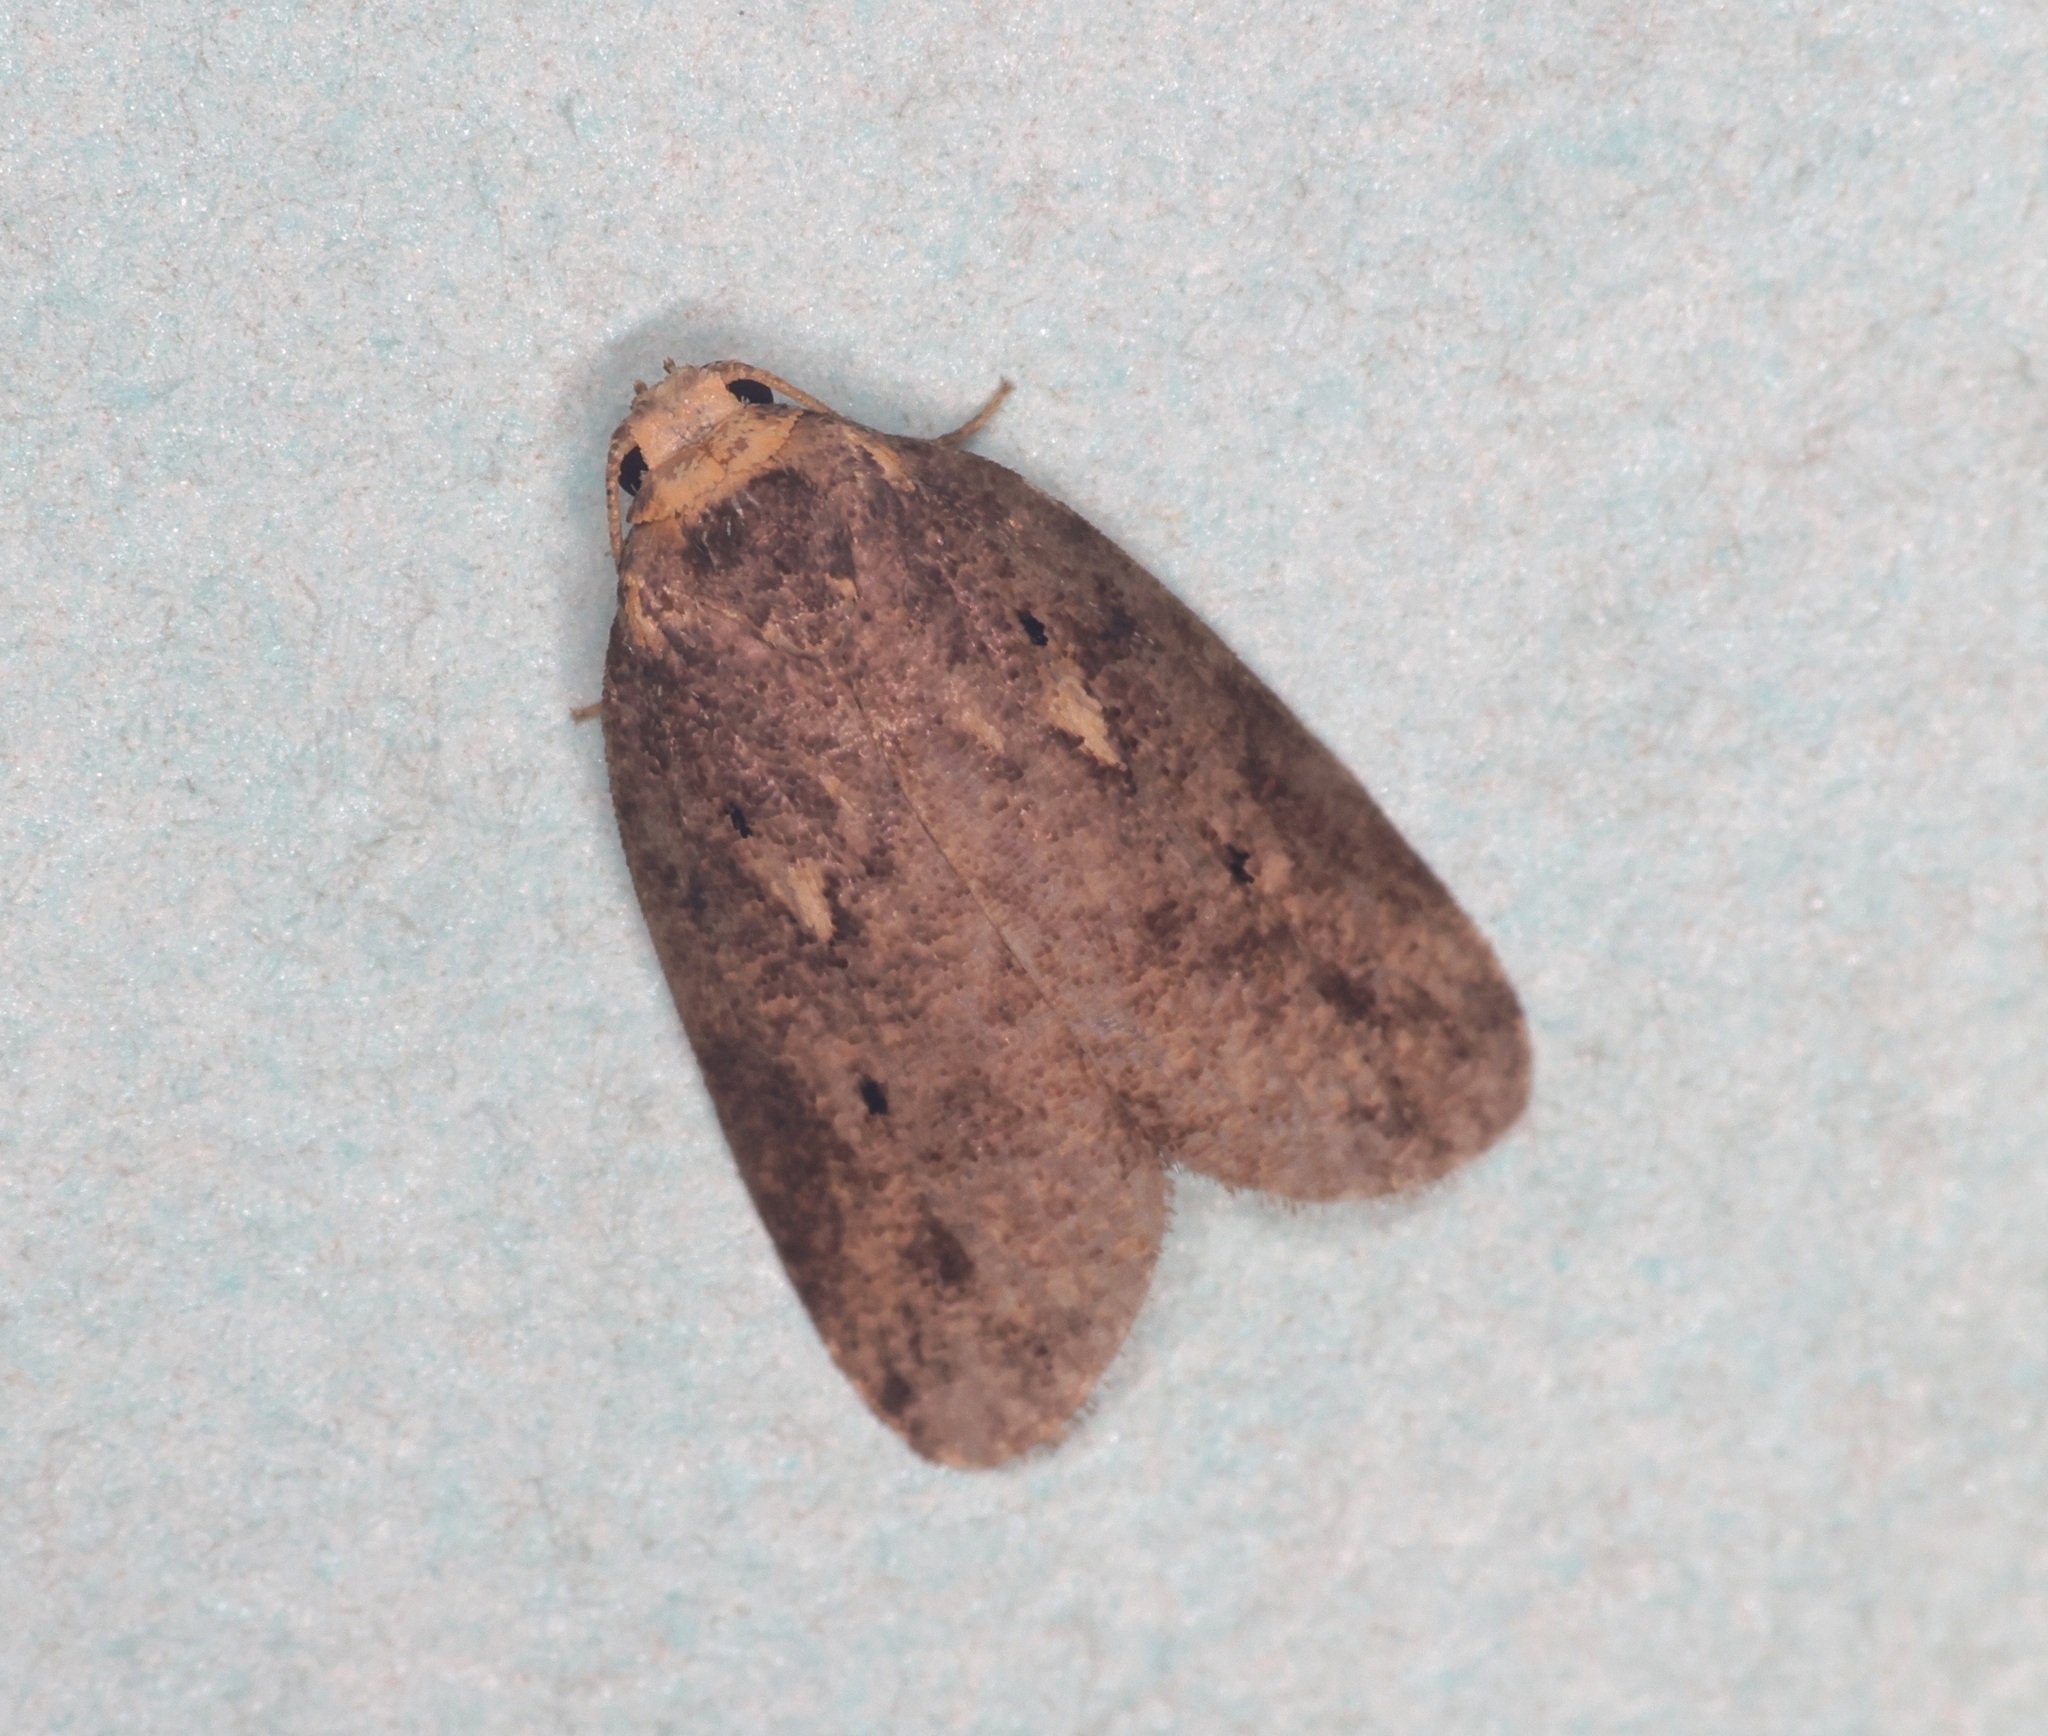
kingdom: Animalia
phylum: Arthropoda
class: Insecta
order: Lepidoptera
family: Erebidae
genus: Eugoa
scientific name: Eugoa brunnea
